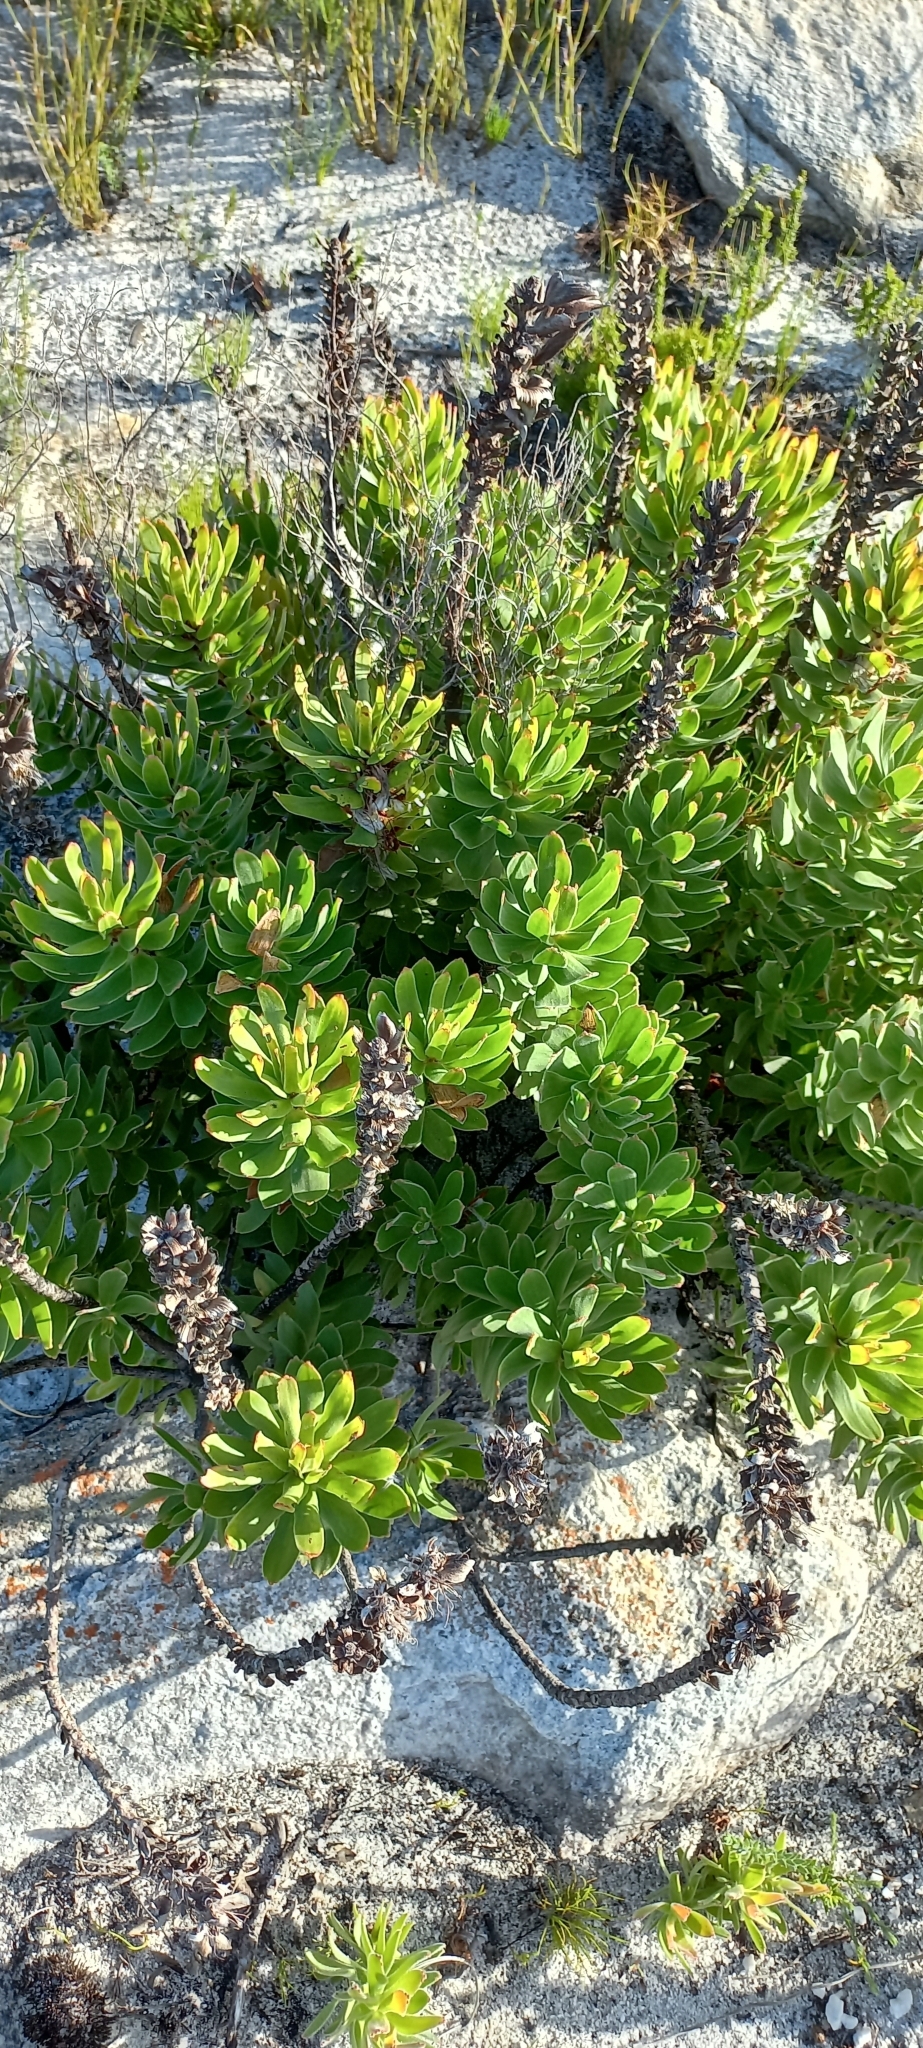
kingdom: Plantae
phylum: Tracheophyta
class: Magnoliopsida
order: Proteales
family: Proteaceae
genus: Mimetes
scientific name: Mimetes cucullatus
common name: Common pagoda
